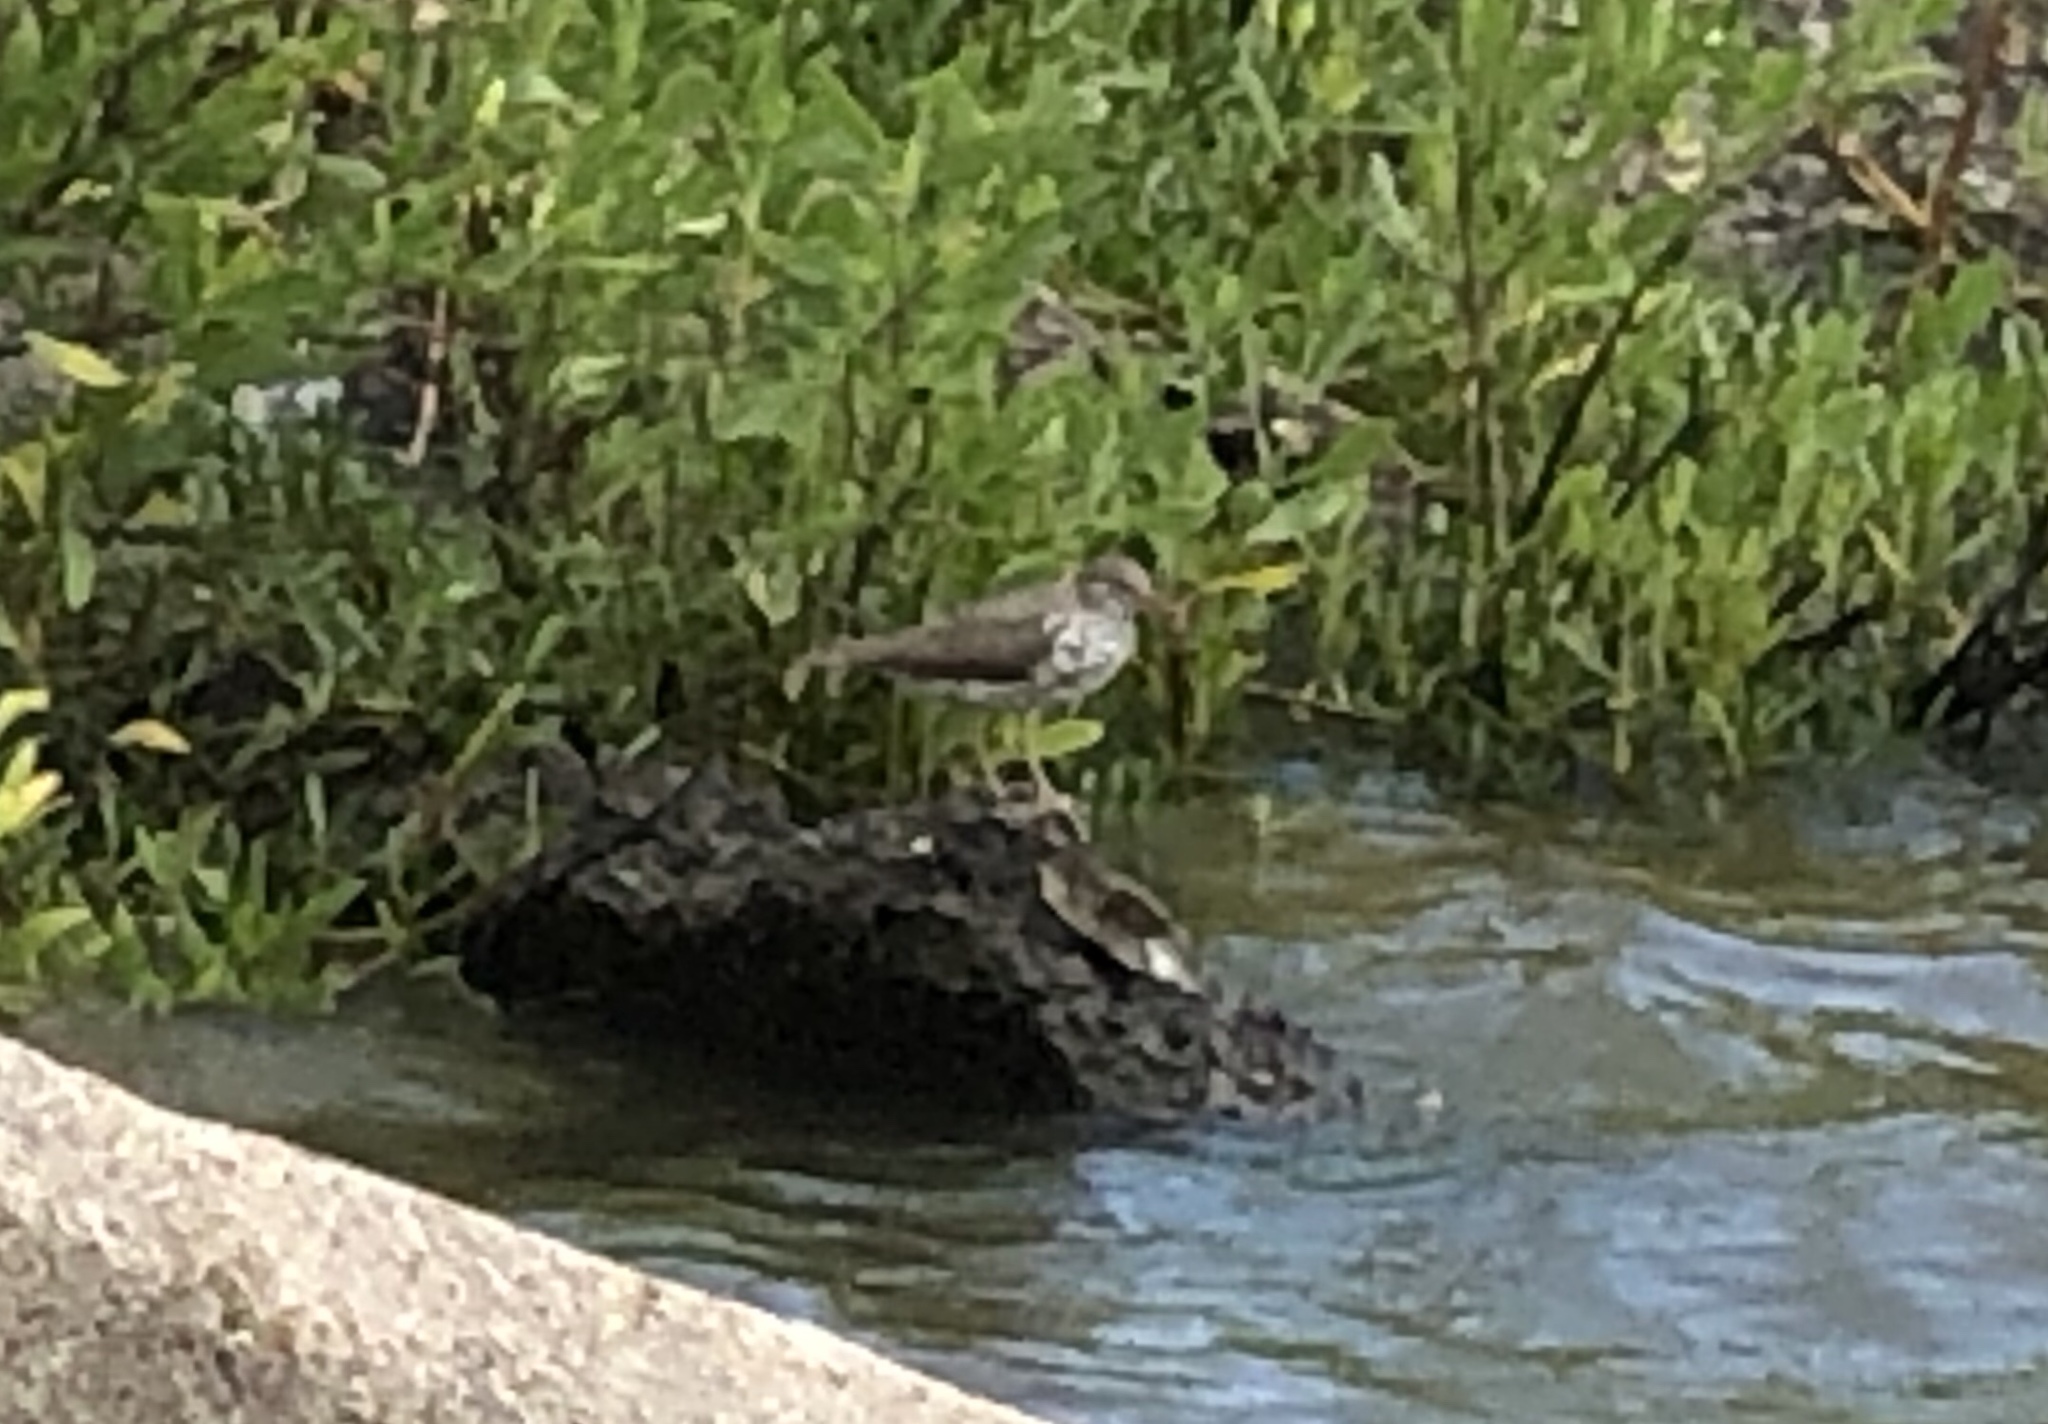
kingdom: Animalia
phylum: Chordata
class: Aves
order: Charadriiformes
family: Scolopacidae
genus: Actitis
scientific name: Actitis macularius
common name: Spotted sandpiper
